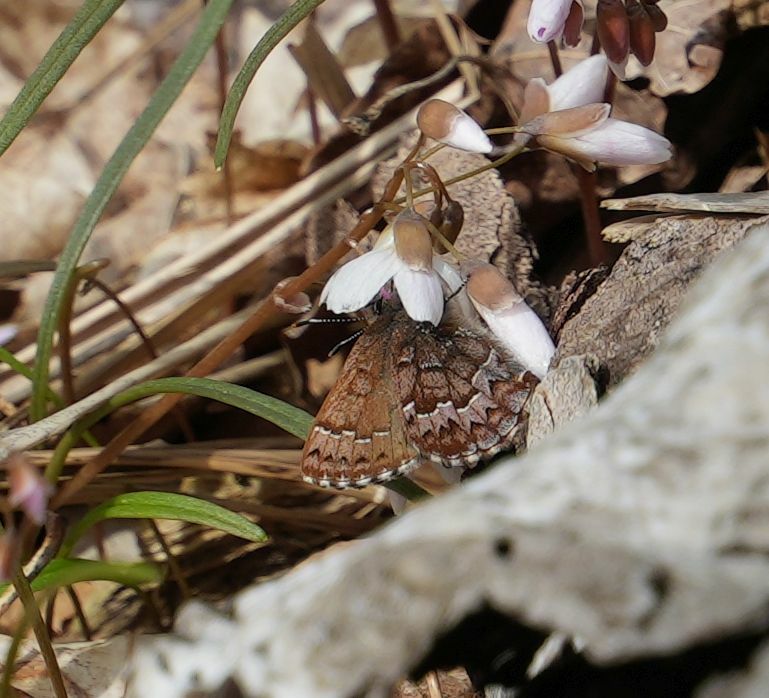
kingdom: Animalia
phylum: Arthropoda
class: Insecta
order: Lepidoptera
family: Lycaenidae
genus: Incisalia
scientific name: Incisalia niphon
